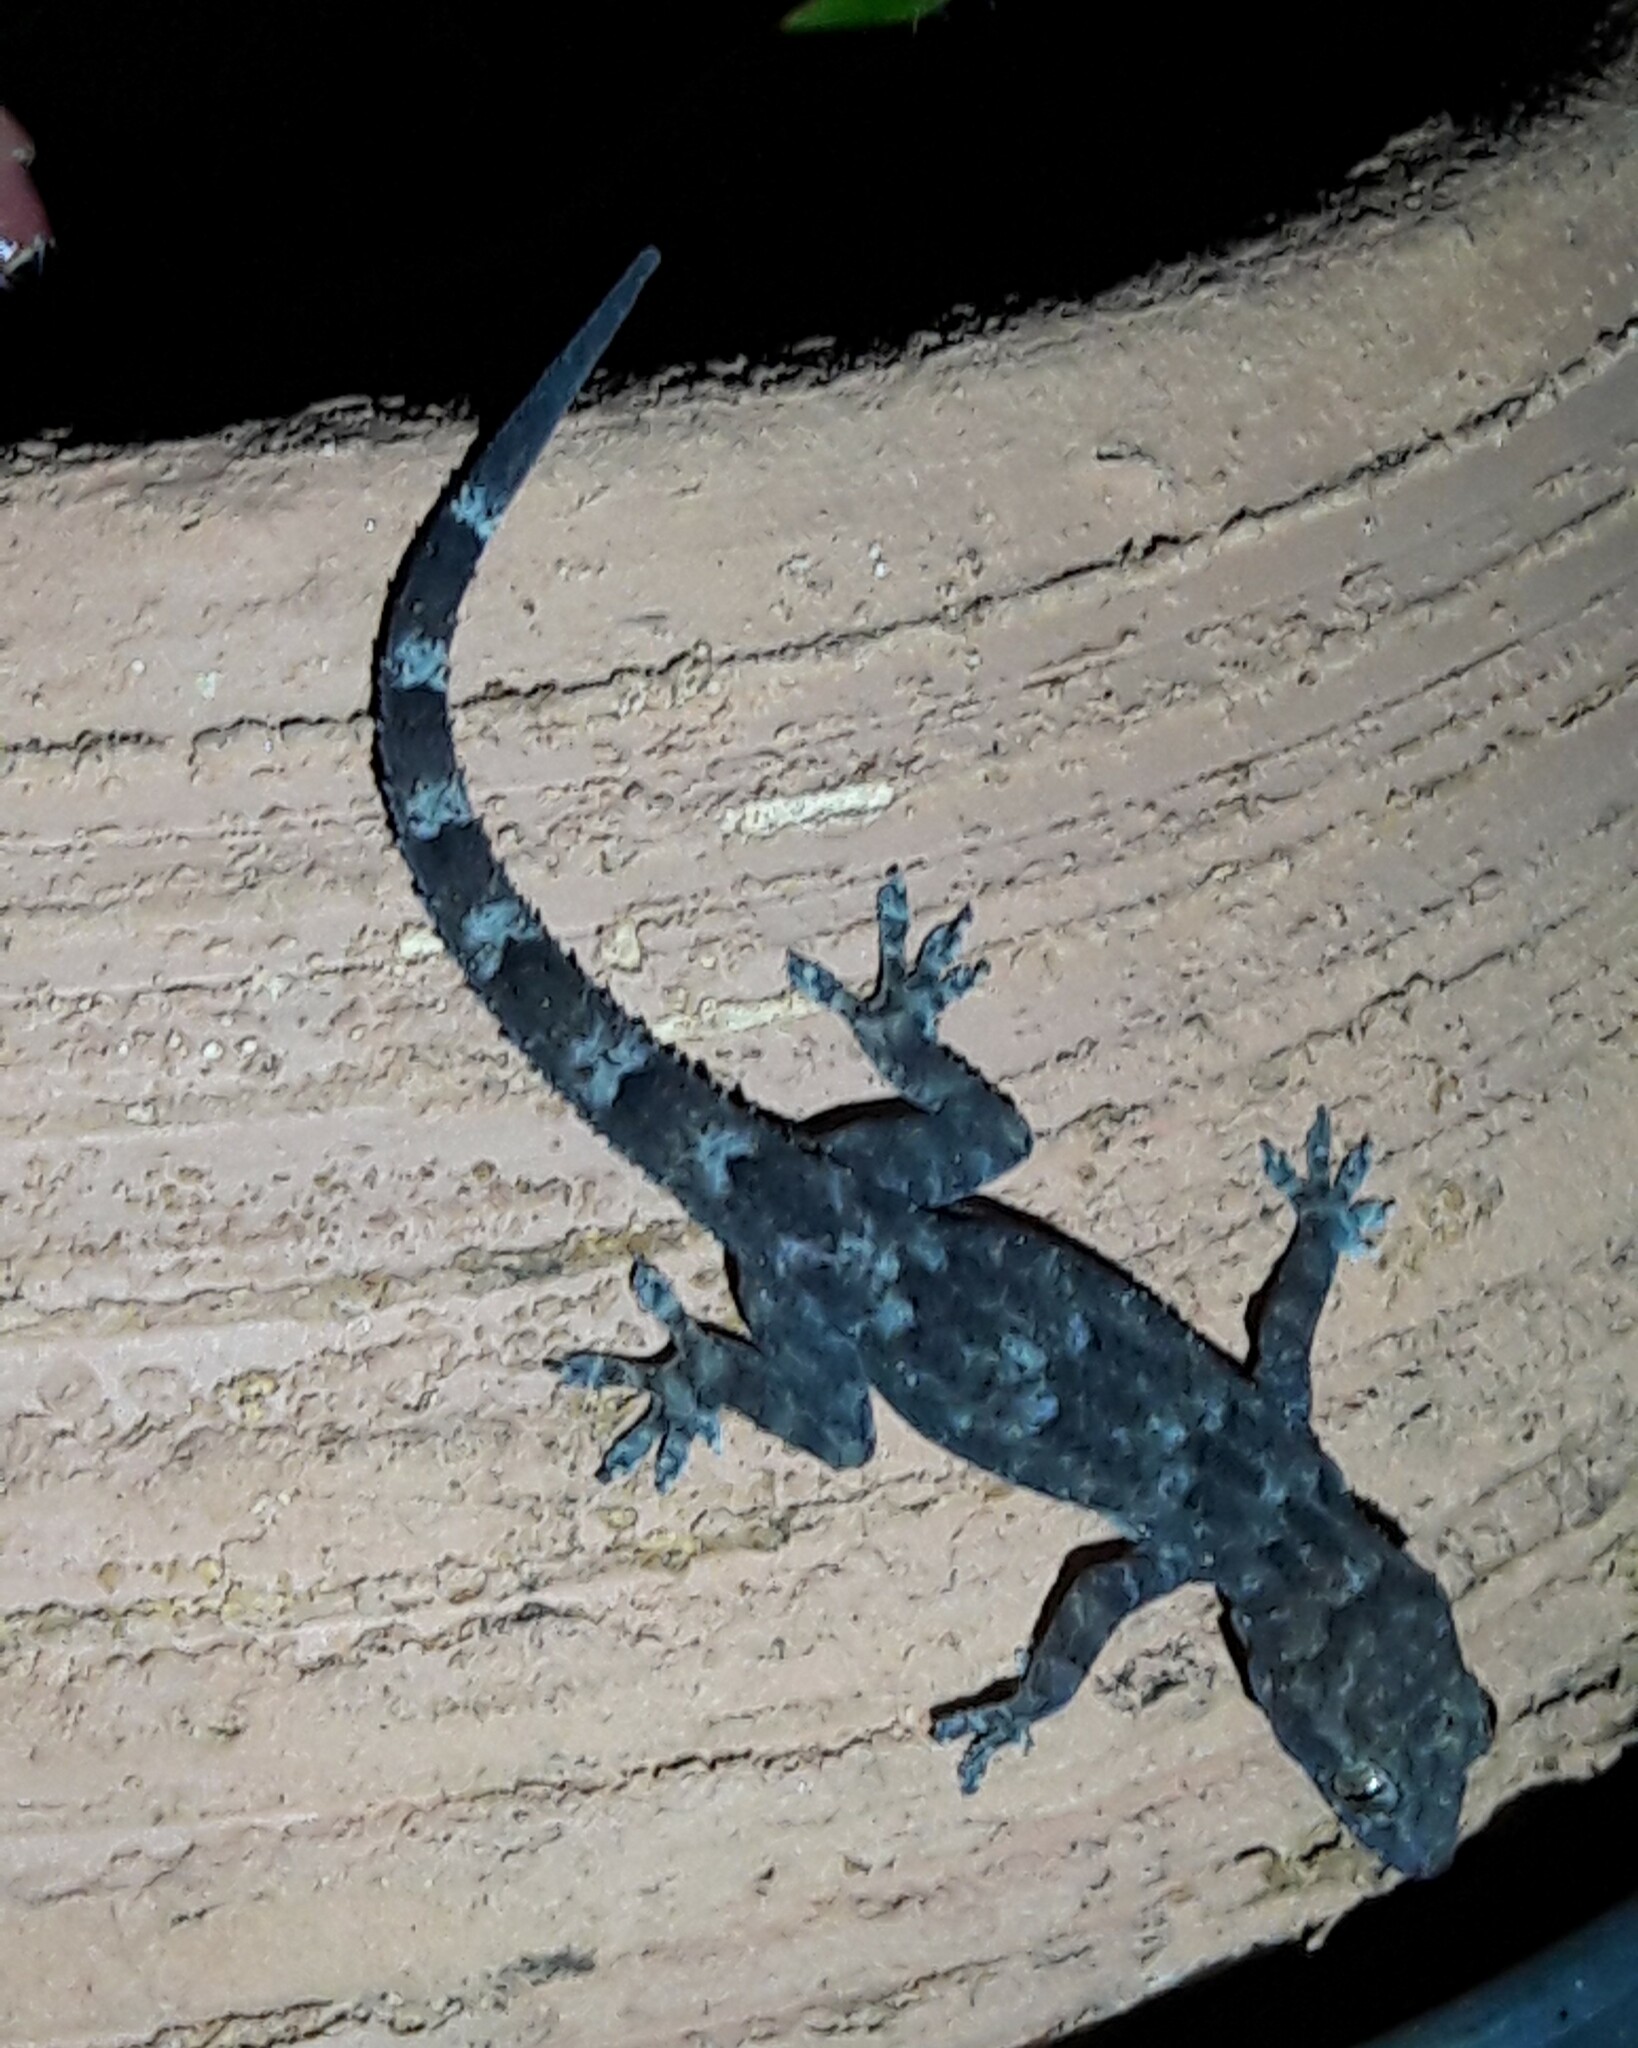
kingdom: Animalia
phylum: Chordata
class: Squamata
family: Gekkonidae
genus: Hemidactylus
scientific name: Hemidactylus mabouia
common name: House gecko
